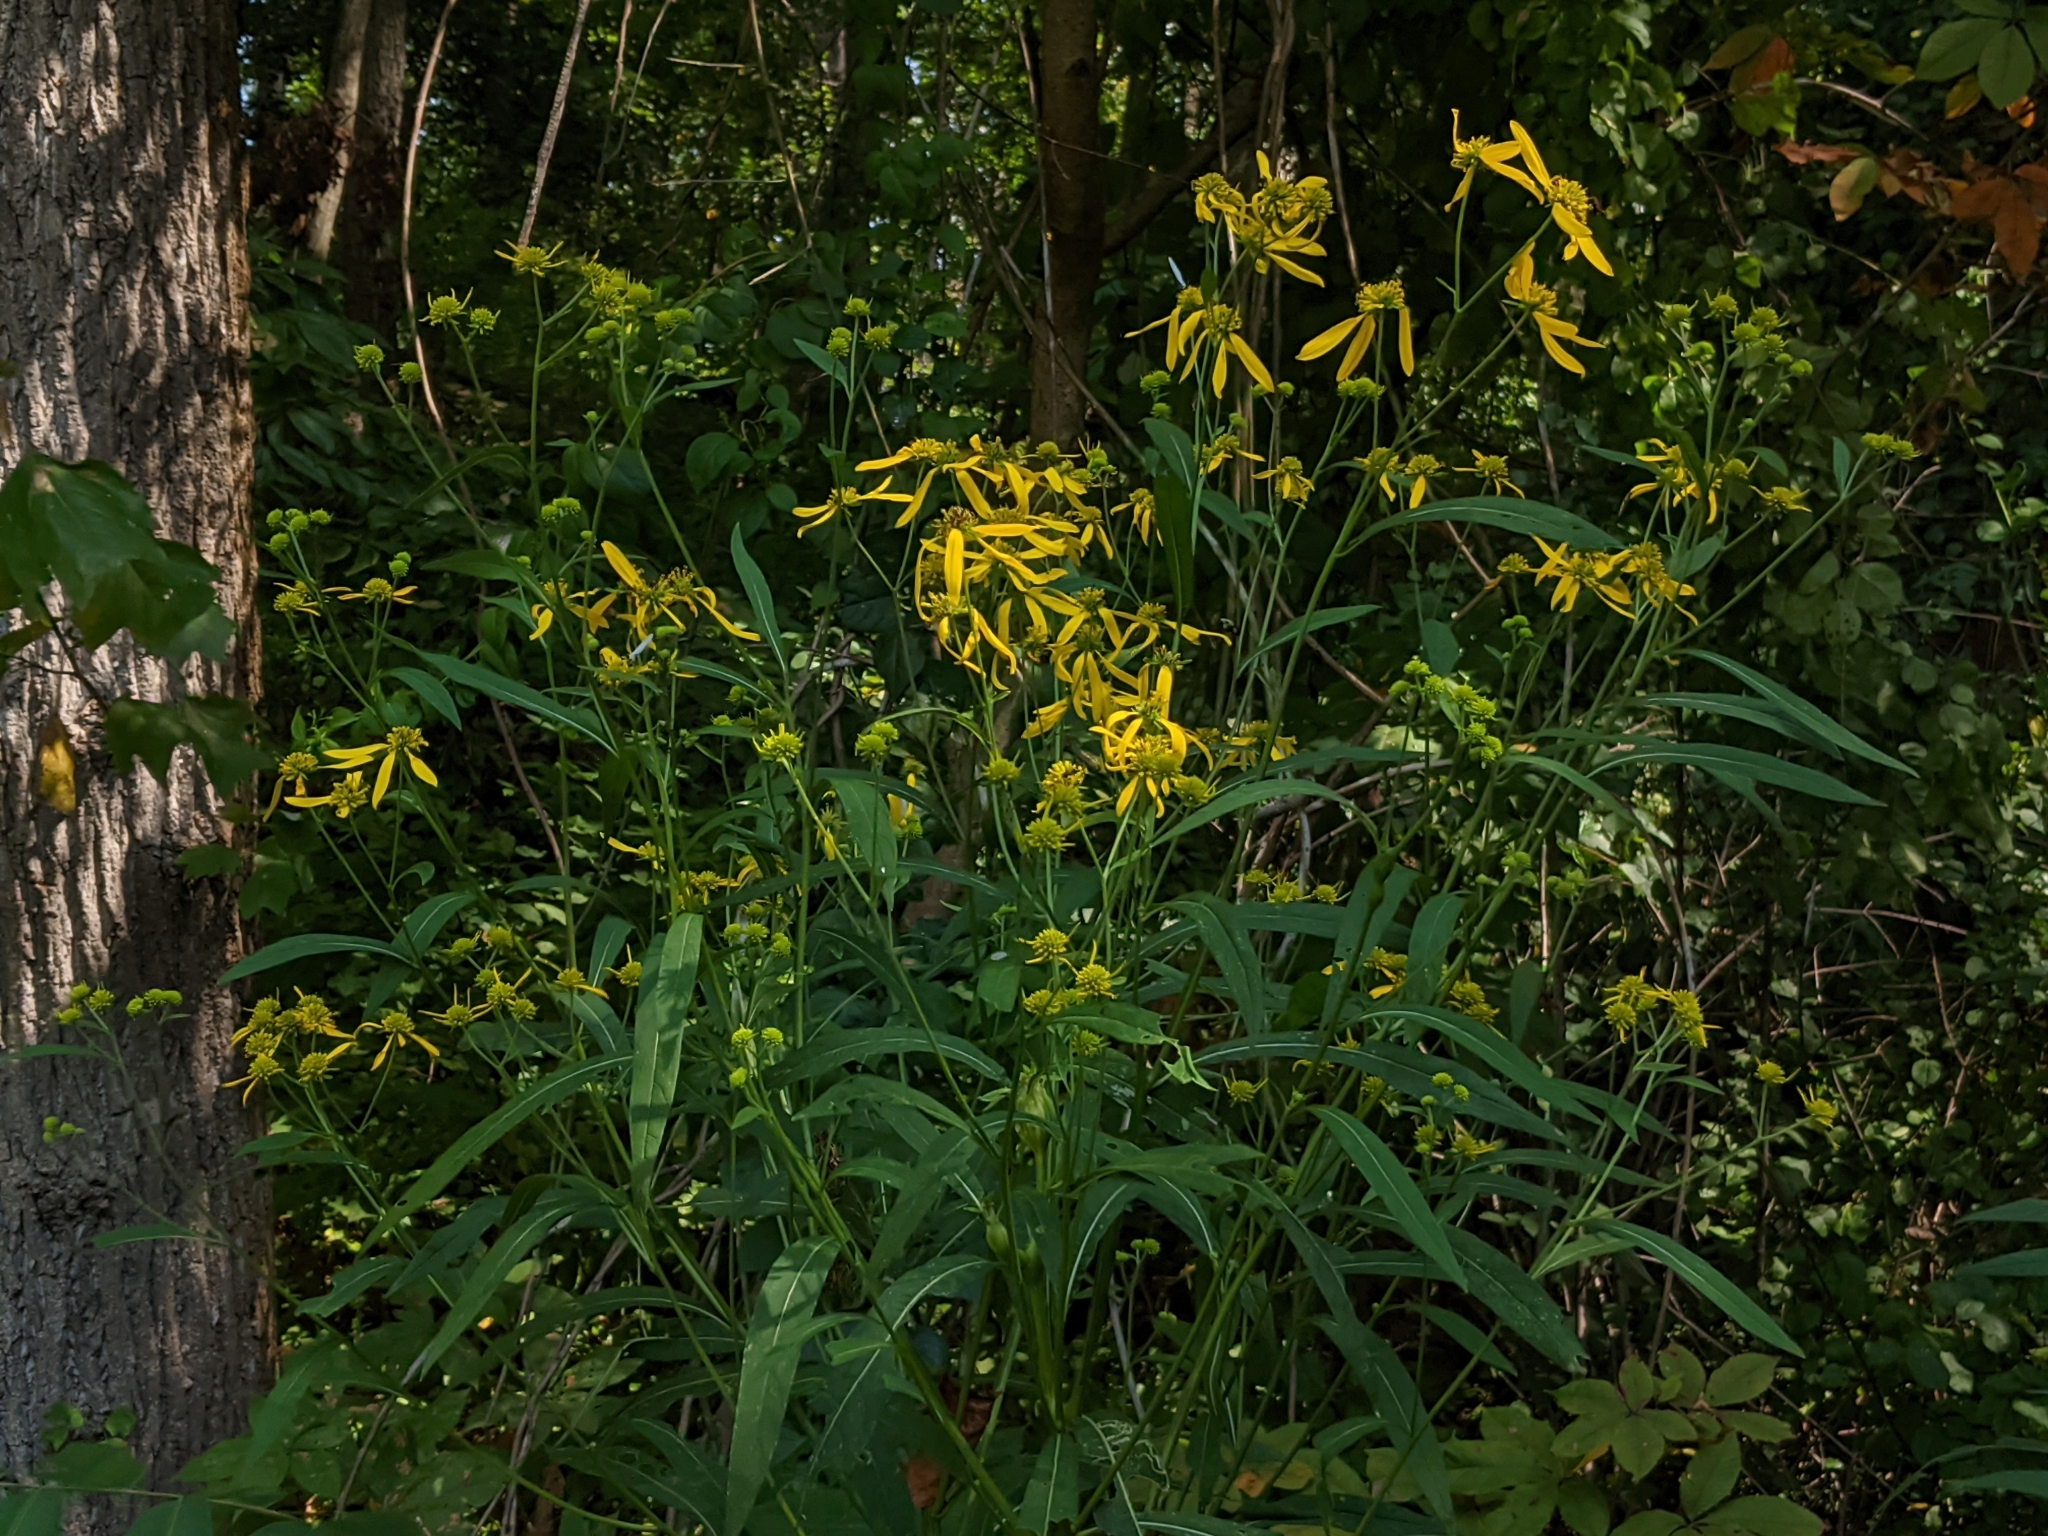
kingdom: Plantae
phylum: Tracheophyta
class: Magnoliopsida
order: Asterales
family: Asteraceae
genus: Verbesina
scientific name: Verbesina alternifolia
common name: Wingstem
